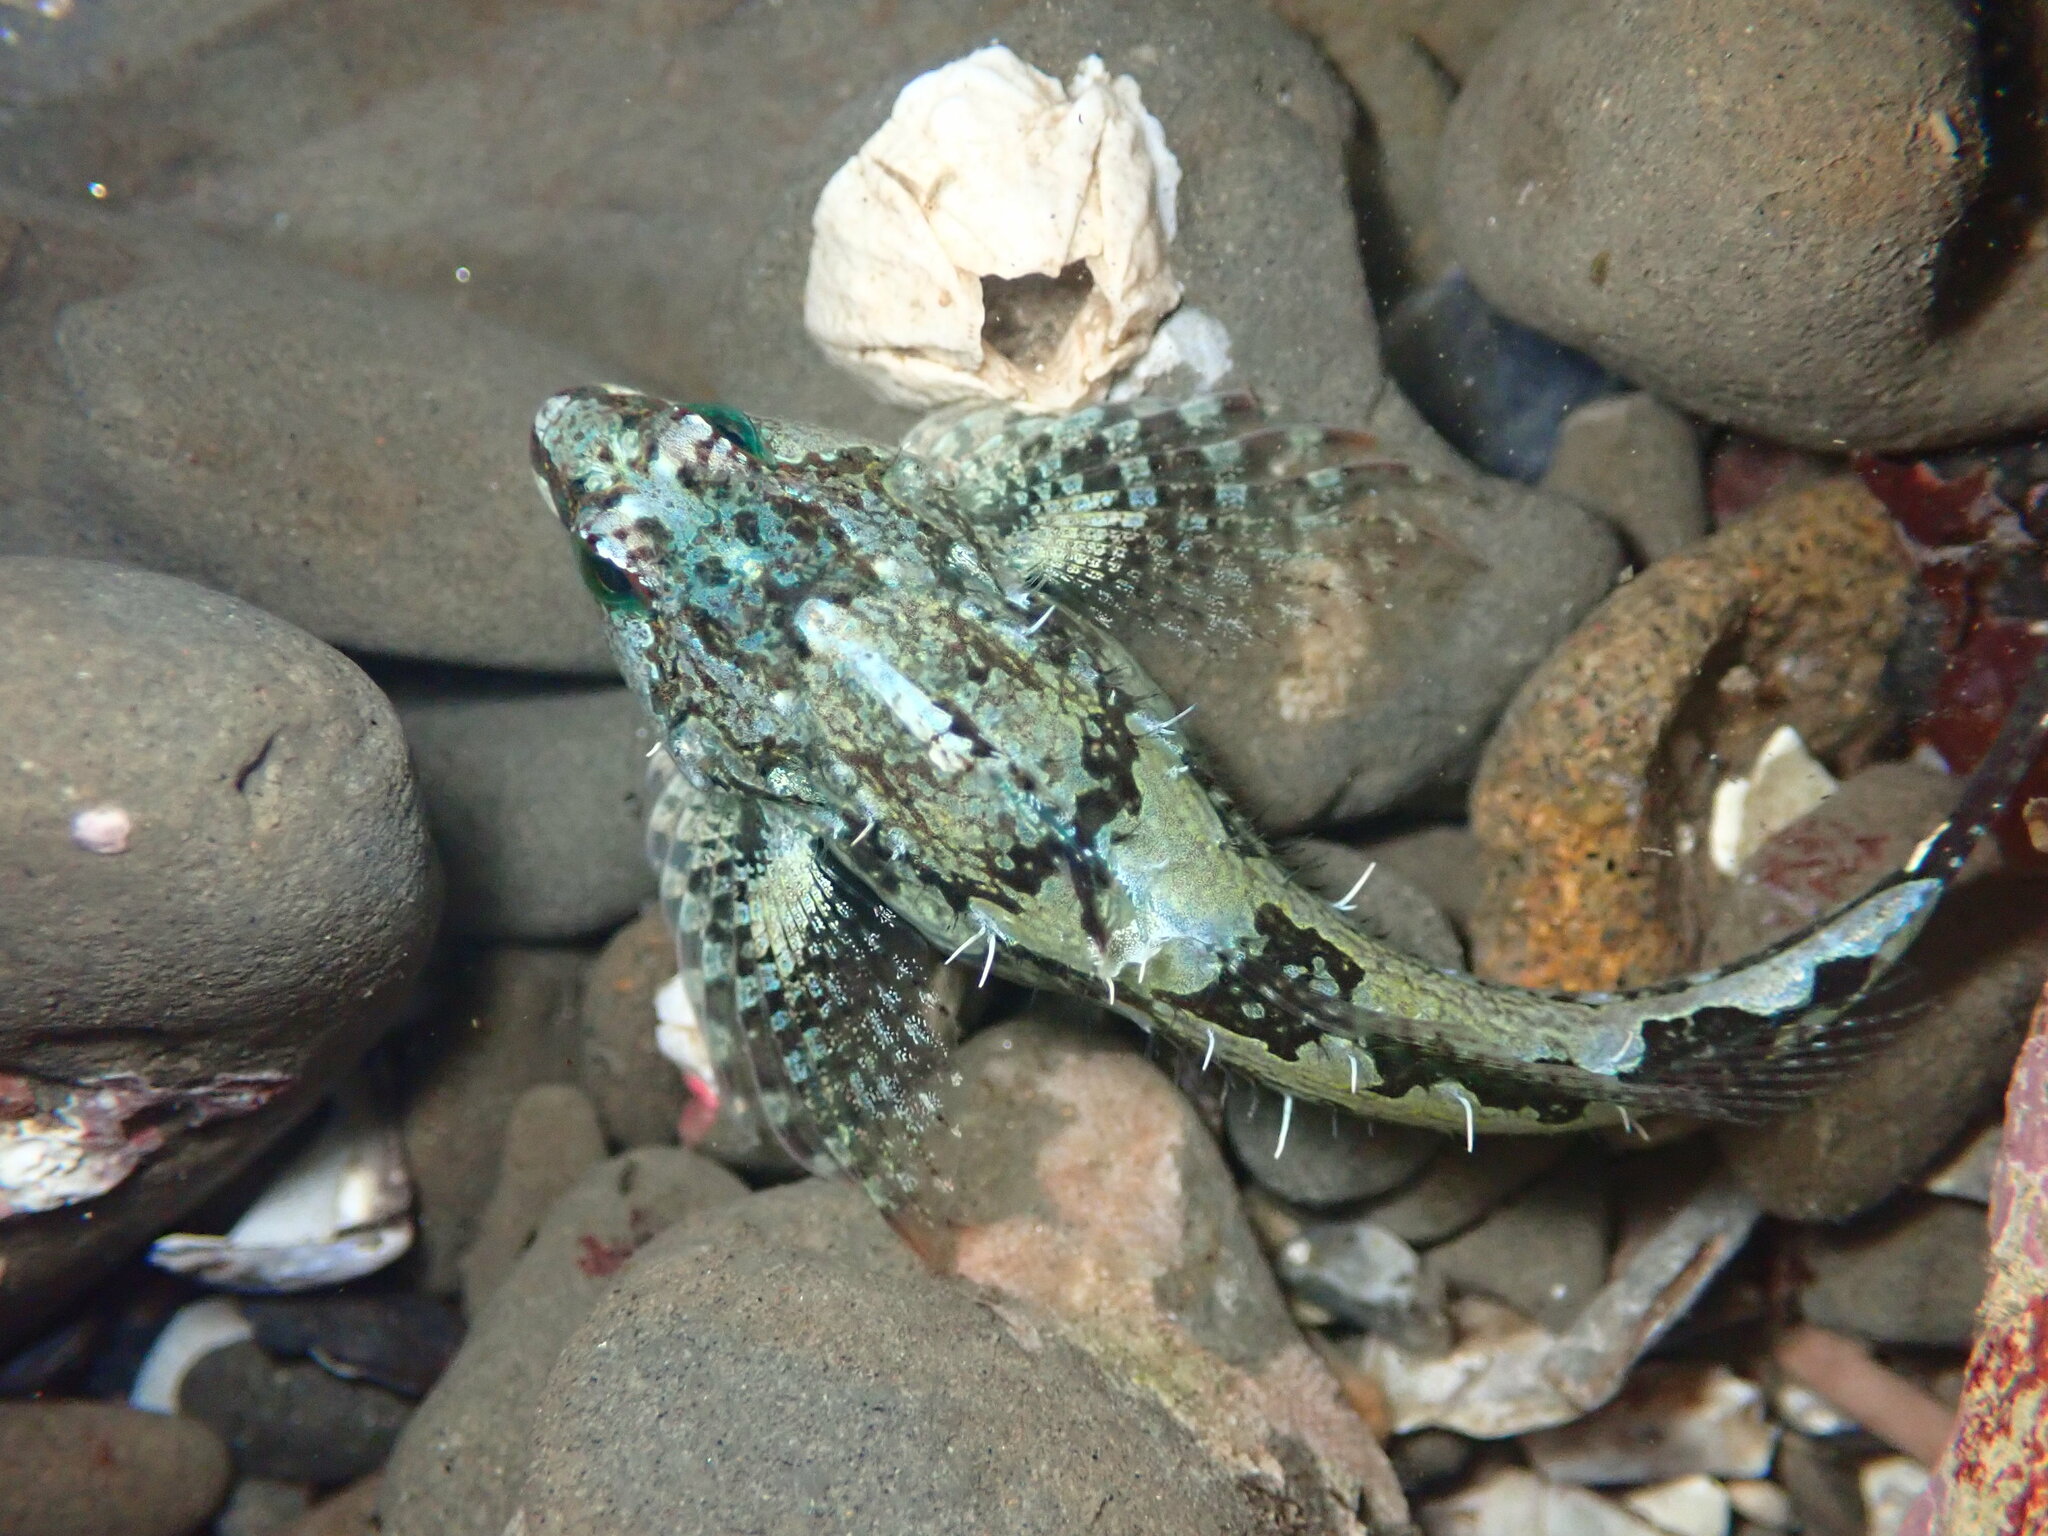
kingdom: Animalia
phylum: Chordata
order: Scorpaeniformes
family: Cottidae
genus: Oligocottus
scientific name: Oligocottus snyderi
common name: Fluffy sculpin
